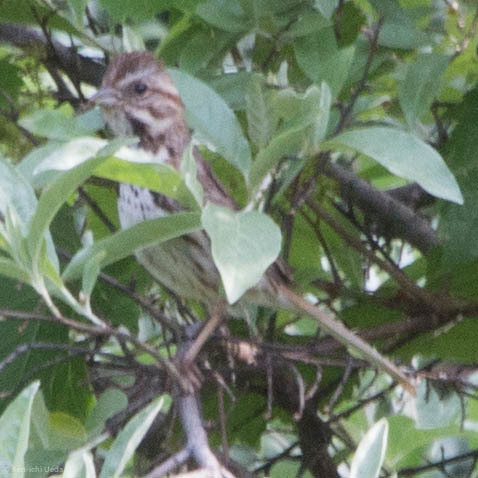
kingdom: Animalia
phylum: Chordata
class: Aves
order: Passeriformes
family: Passerellidae
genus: Melospiza
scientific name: Melospiza melodia
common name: Song sparrow
